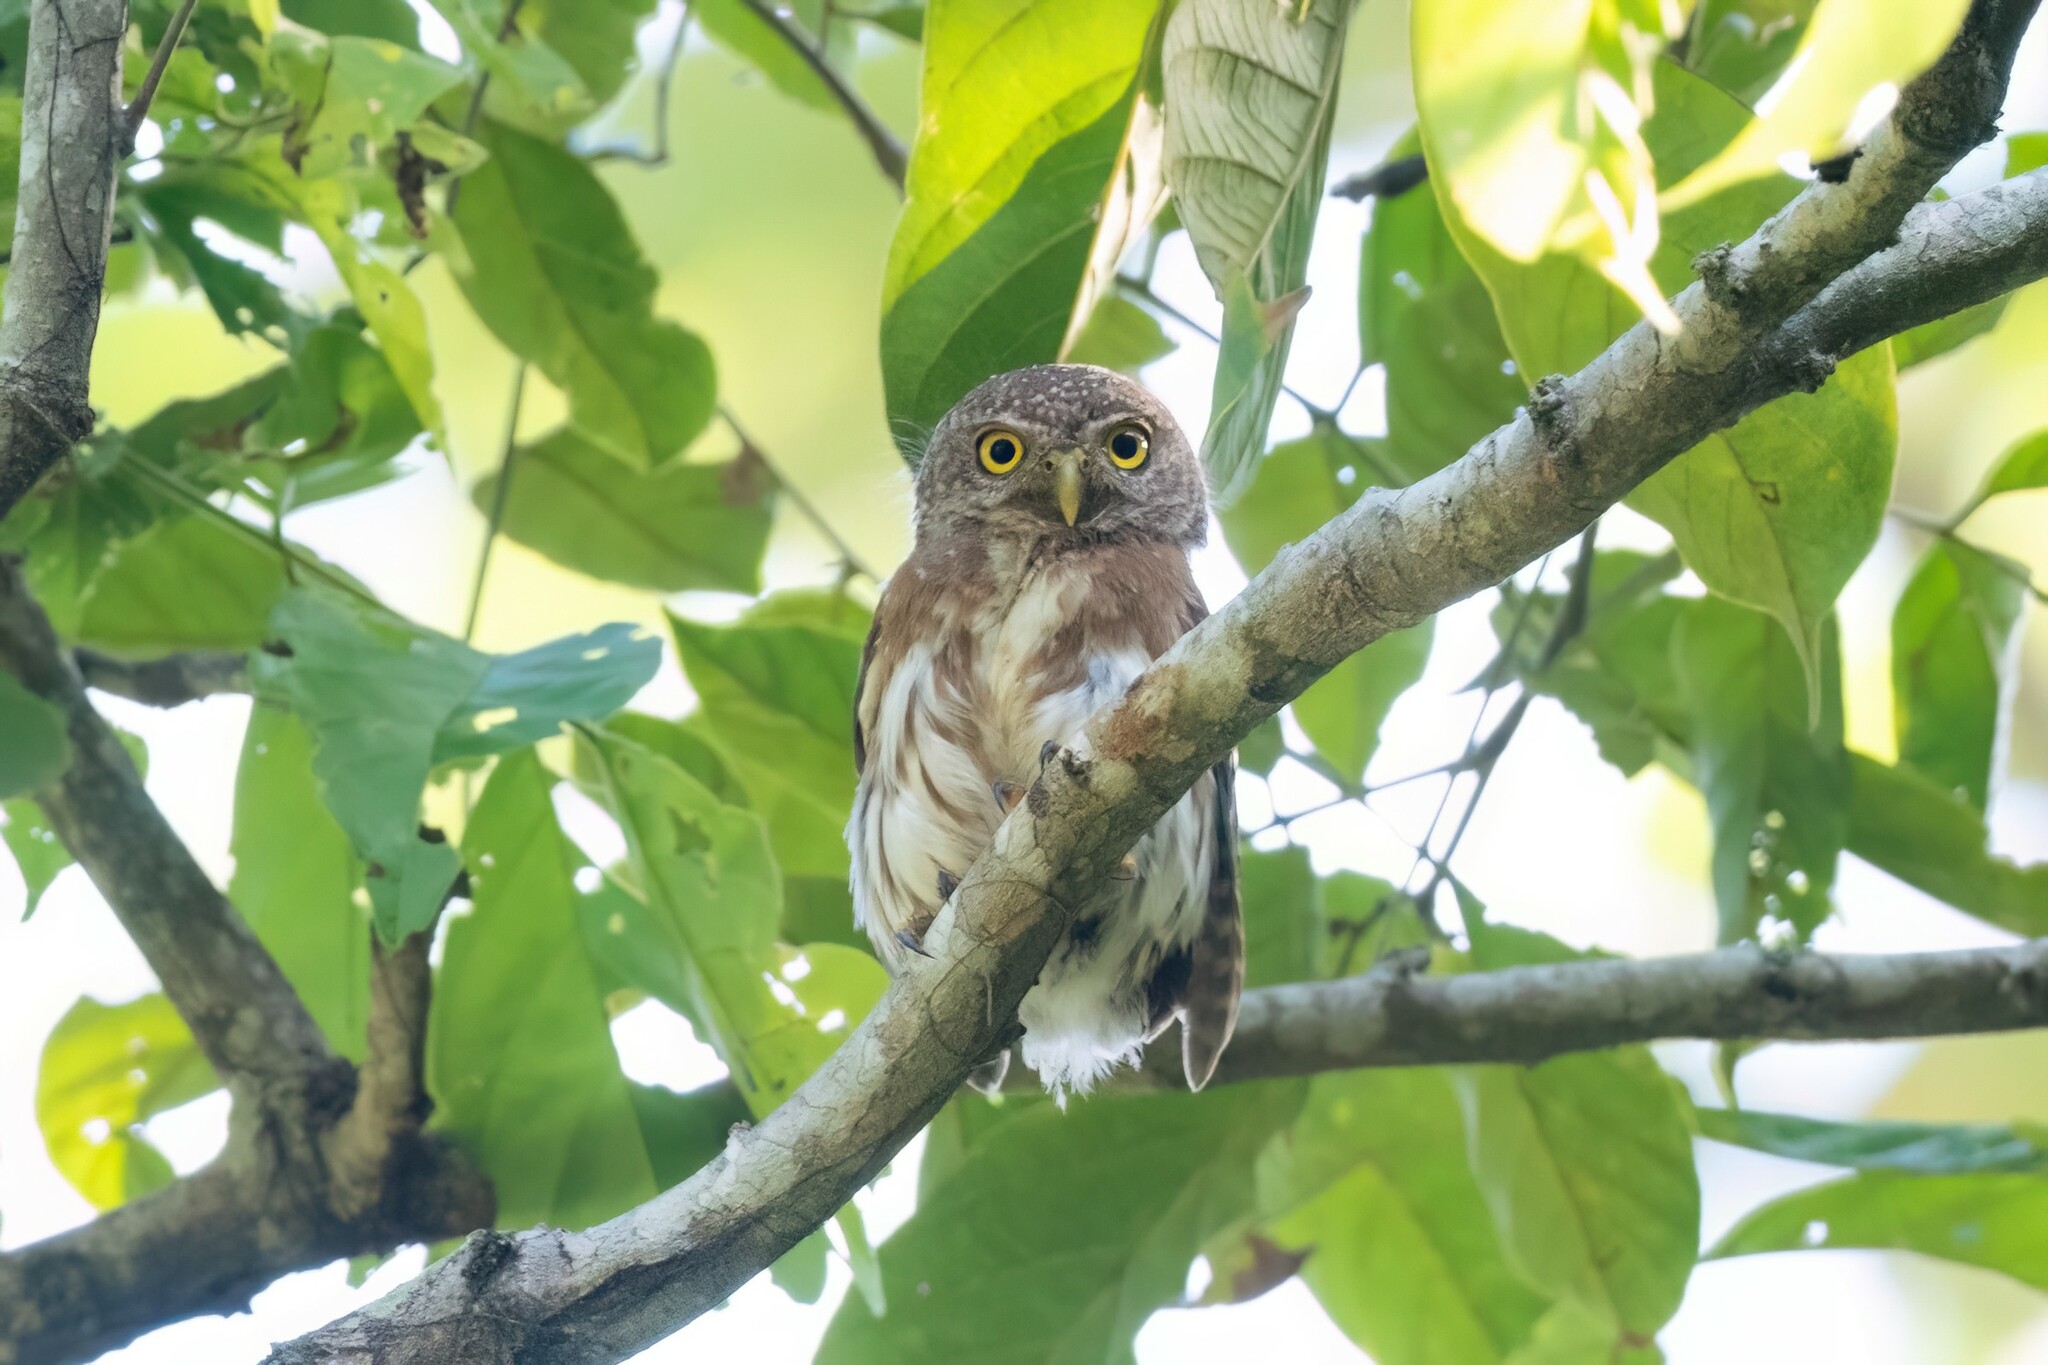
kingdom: Animalia
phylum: Chordata
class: Aves
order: Strigiformes
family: Strigidae
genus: Glaucidium
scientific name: Glaucidium palmarum
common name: Colima pygmy-owl
